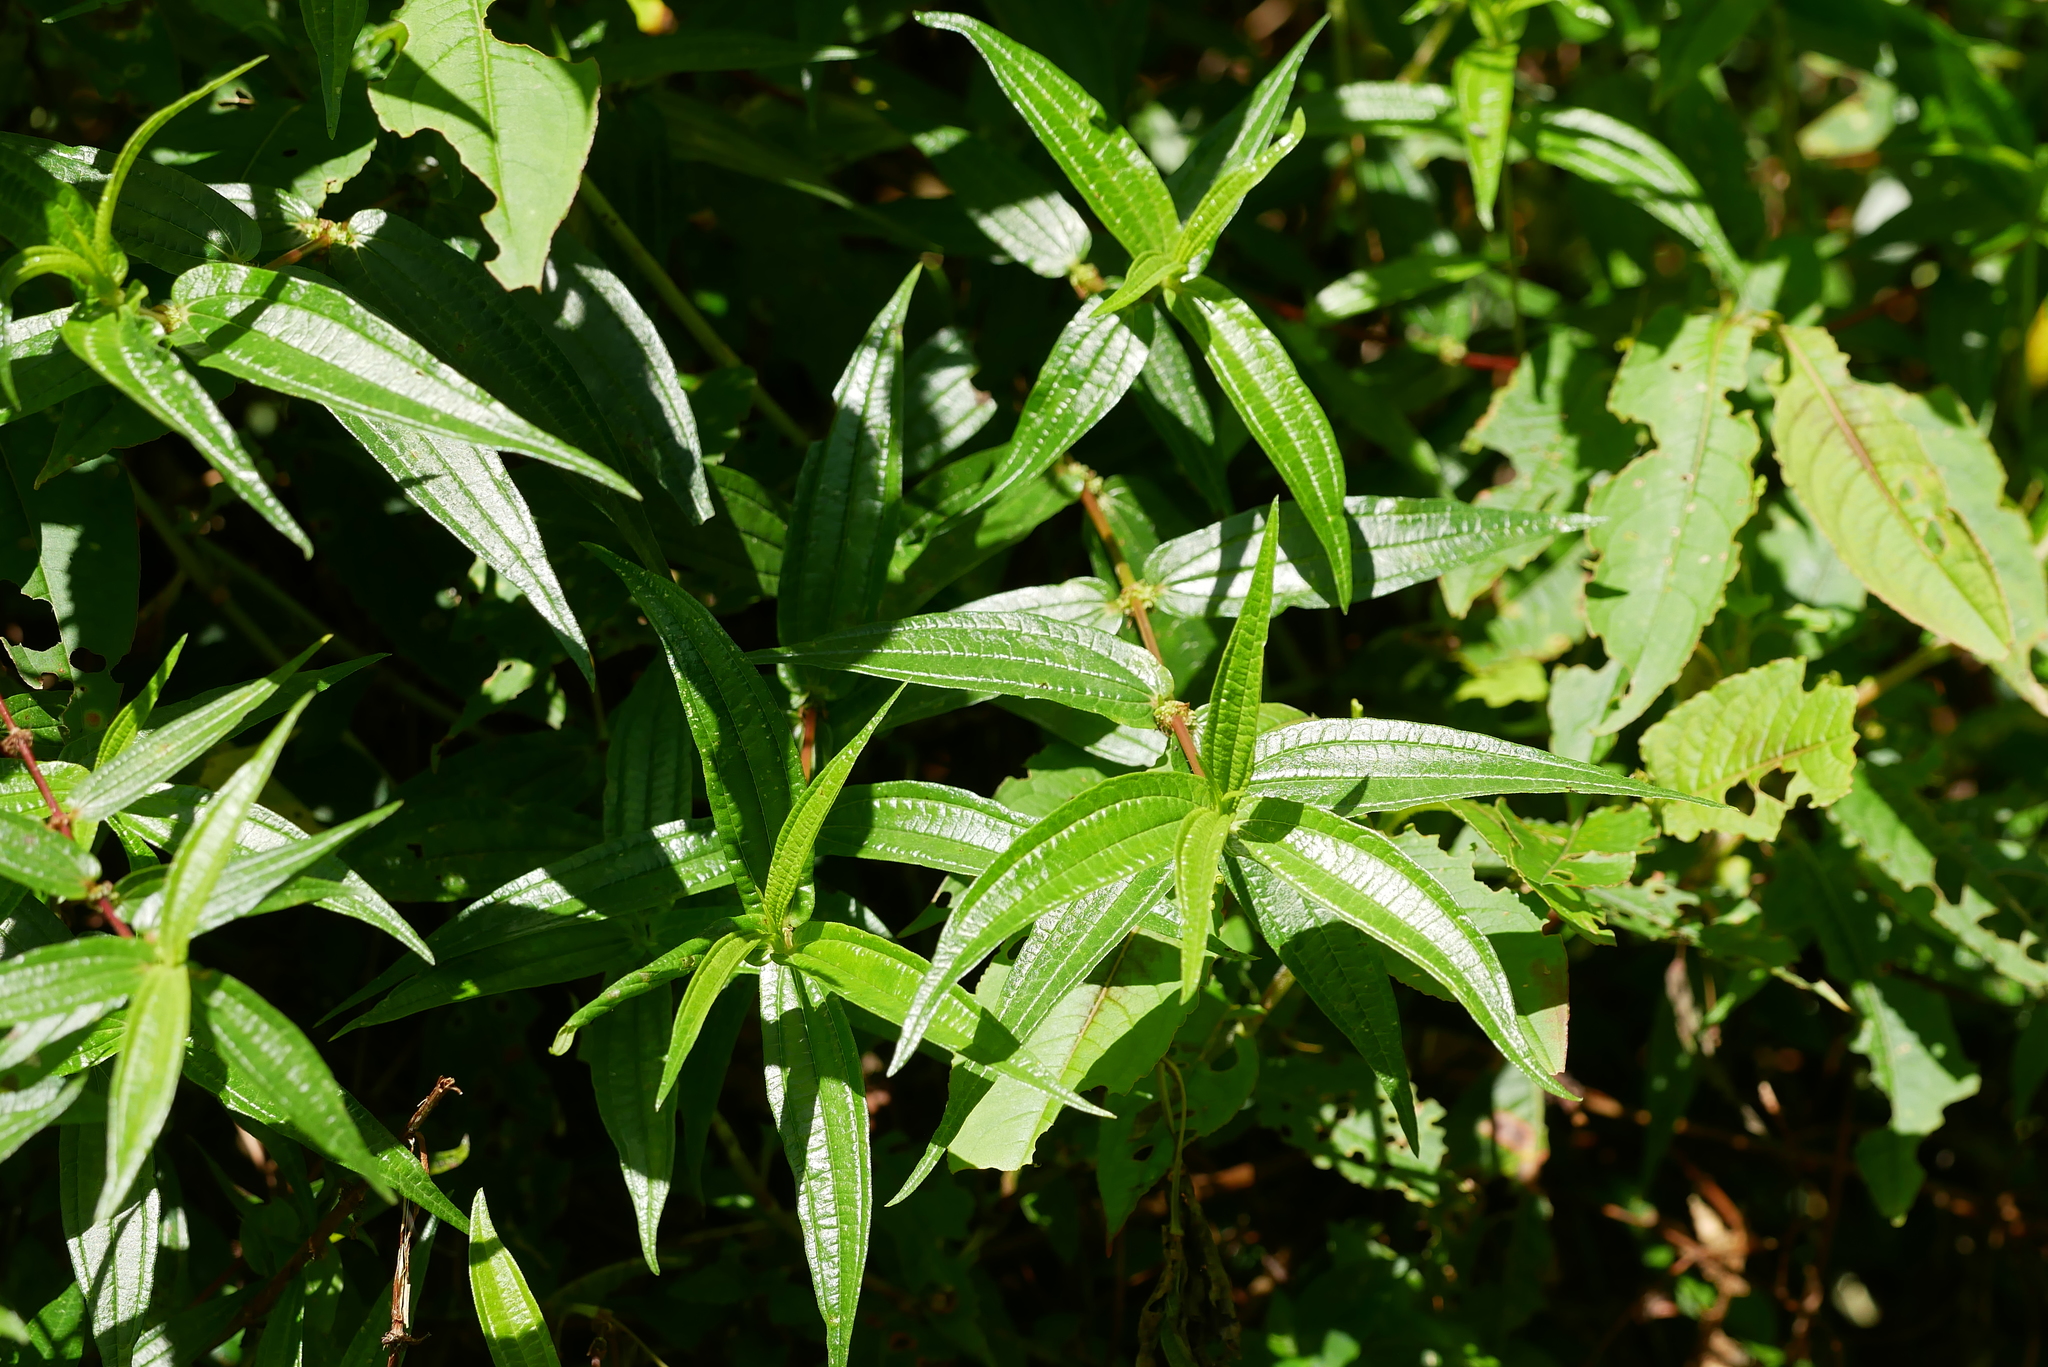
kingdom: Plantae
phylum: Tracheophyta
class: Magnoliopsida
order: Rosales
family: Urticaceae
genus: Gonostegia
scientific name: Gonostegia triandra
